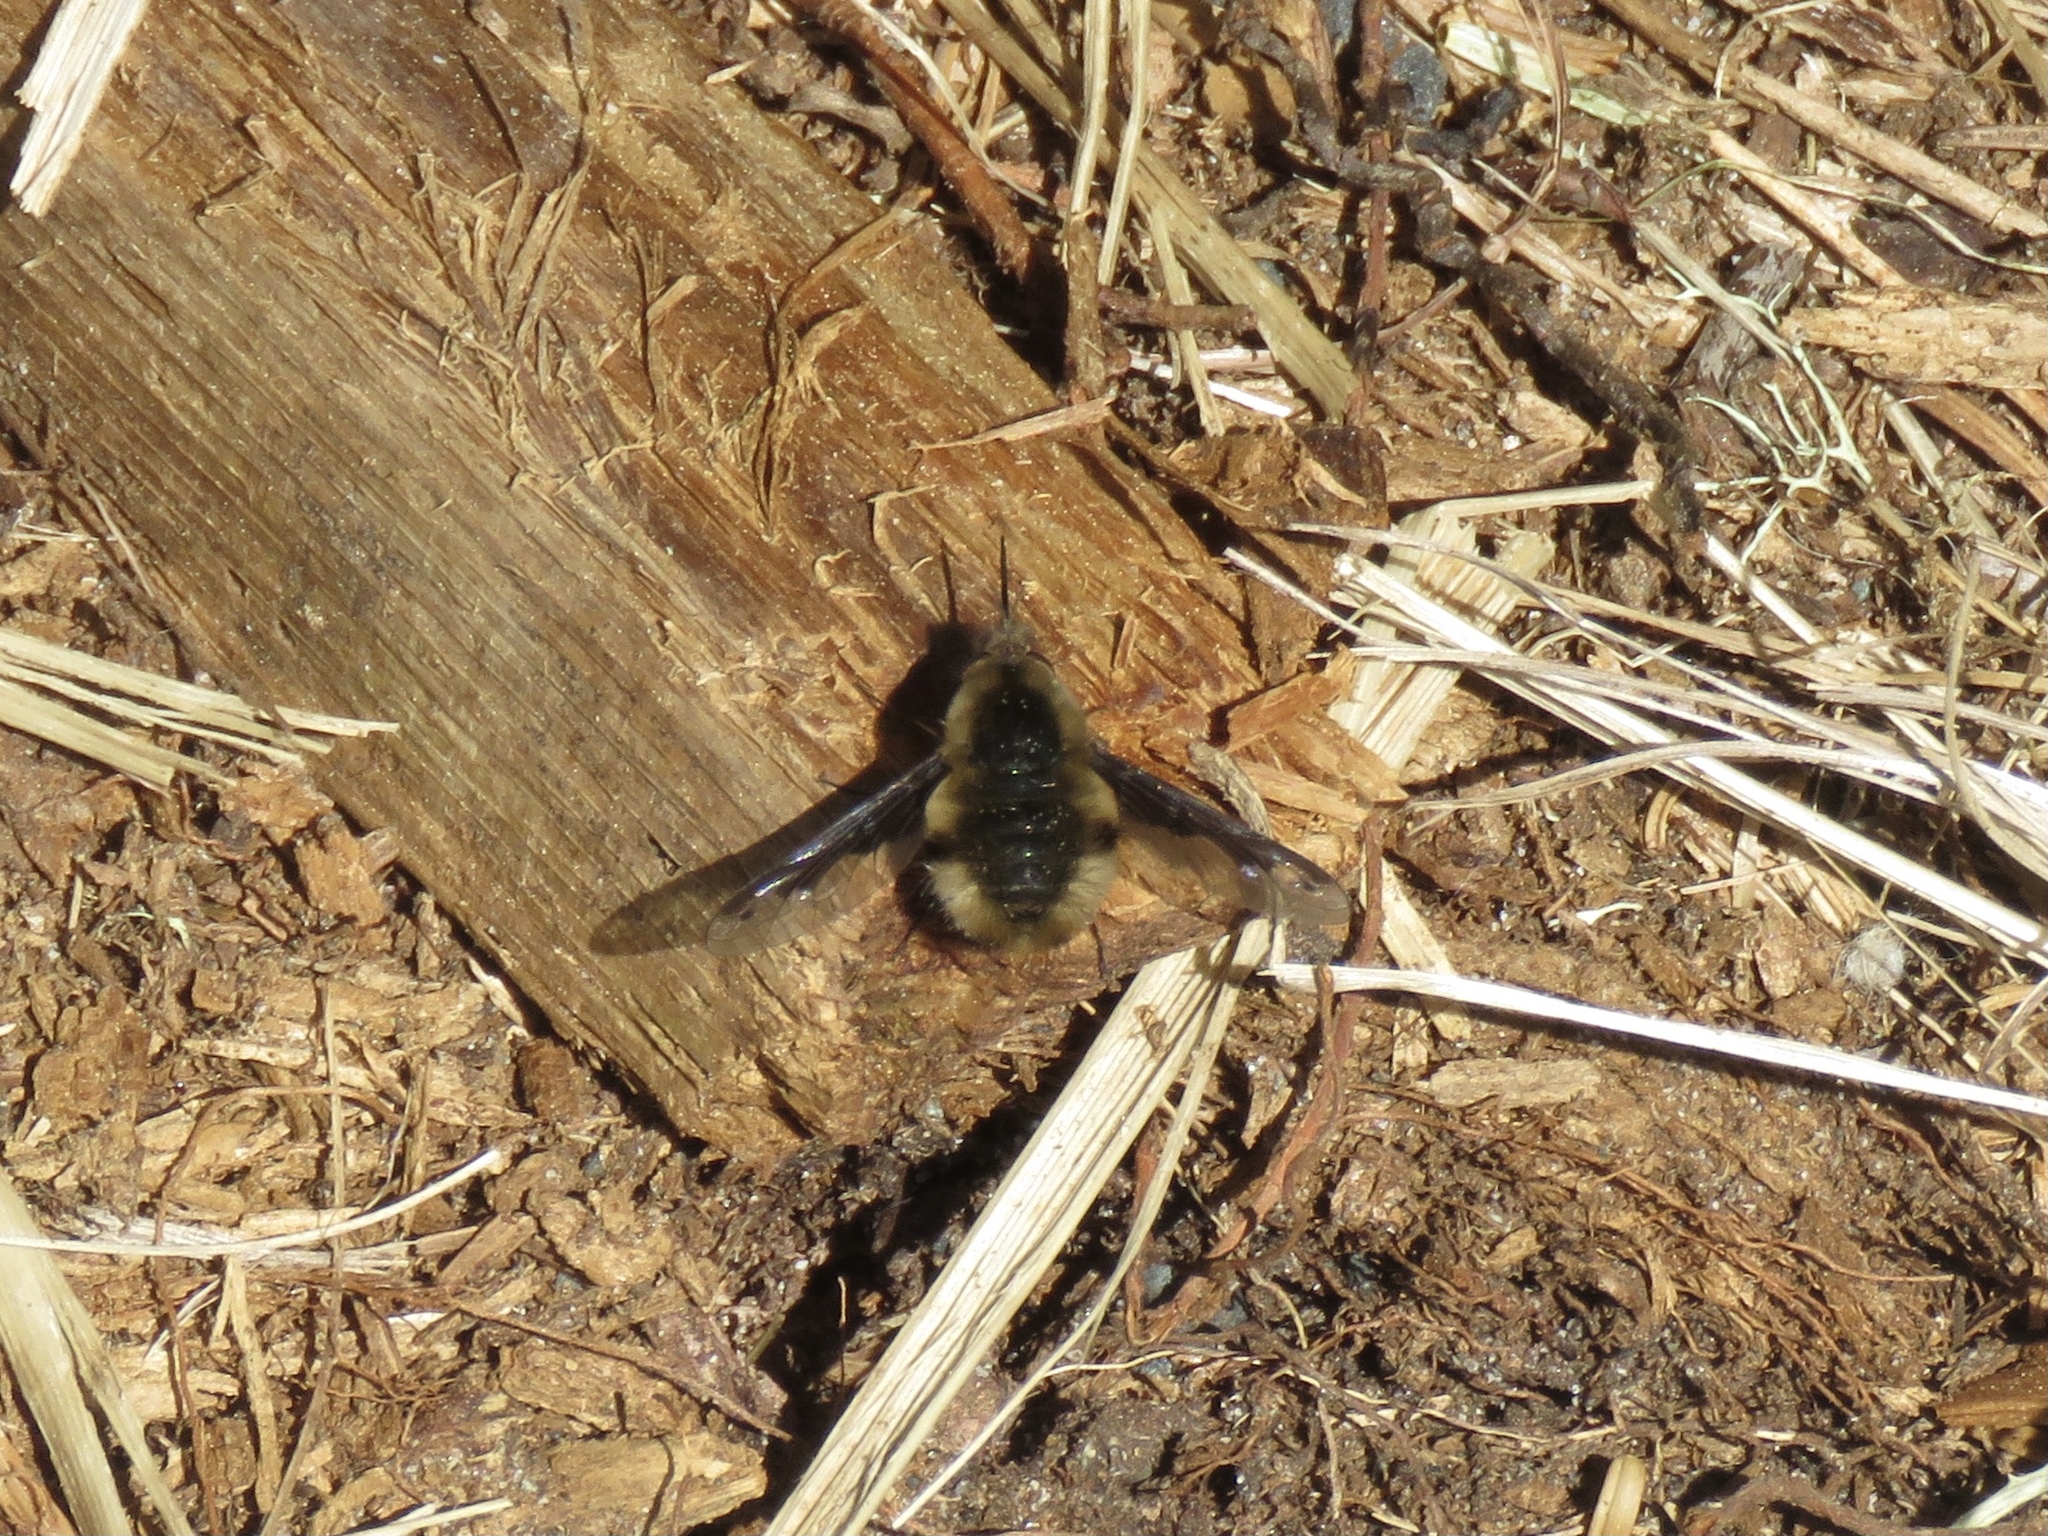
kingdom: Animalia
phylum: Arthropoda
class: Insecta
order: Diptera
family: Bombyliidae
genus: Bombylius
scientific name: Bombylius major
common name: Bee fly
